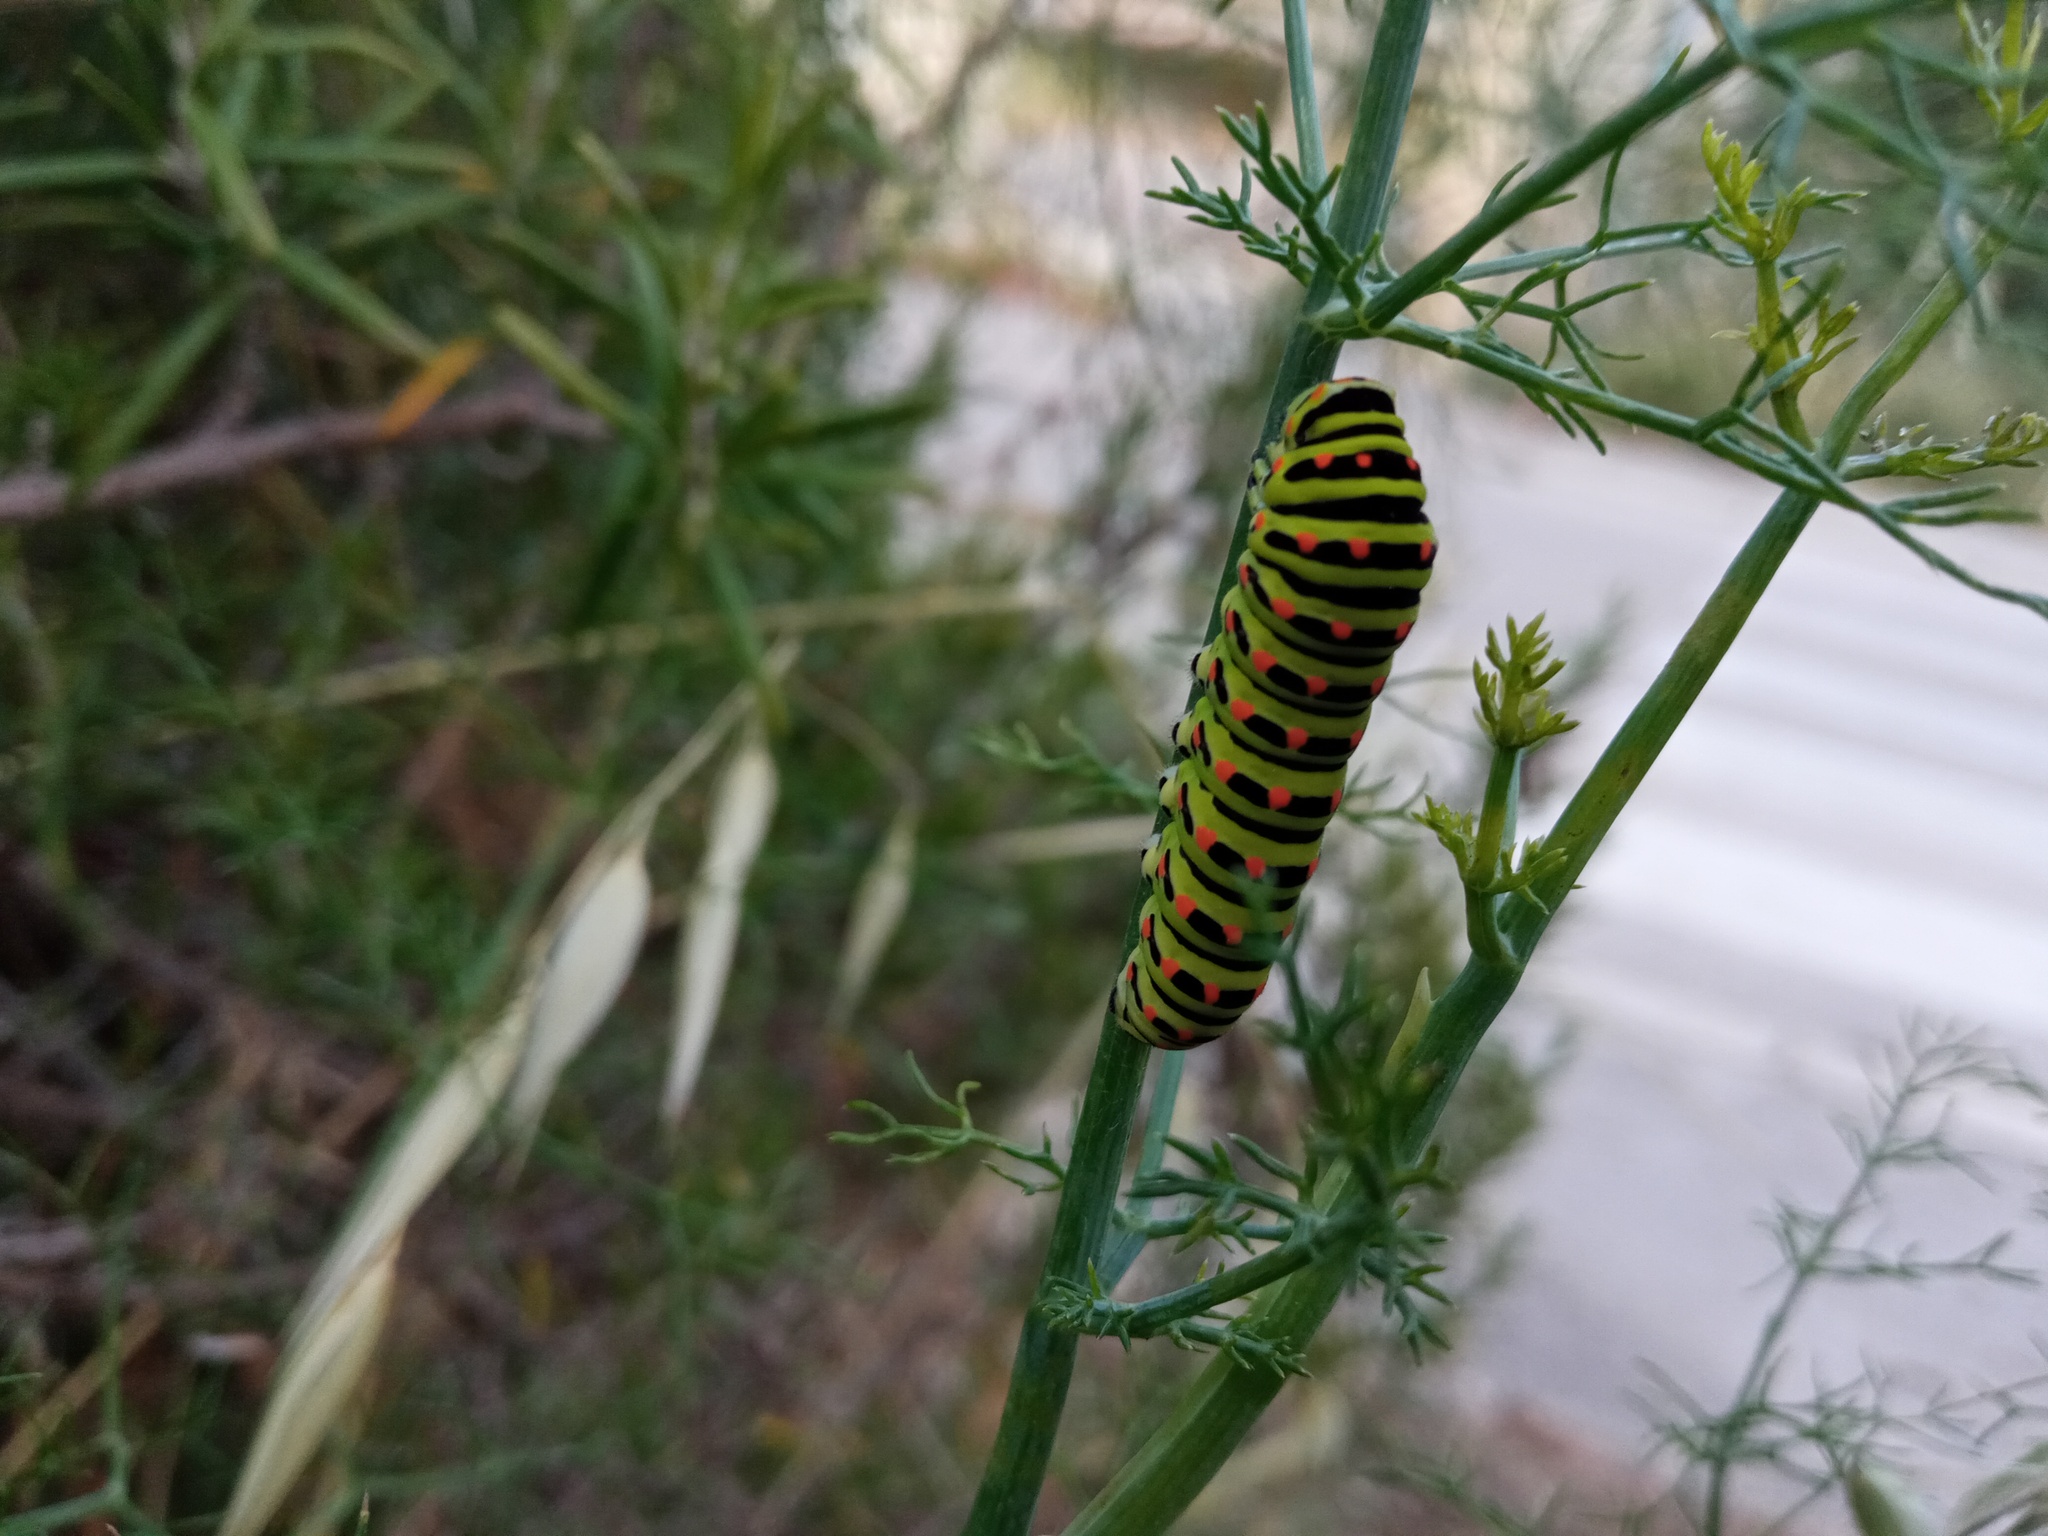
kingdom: Animalia
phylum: Arthropoda
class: Insecta
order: Lepidoptera
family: Papilionidae
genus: Papilio
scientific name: Papilio machaon
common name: Swallowtail
